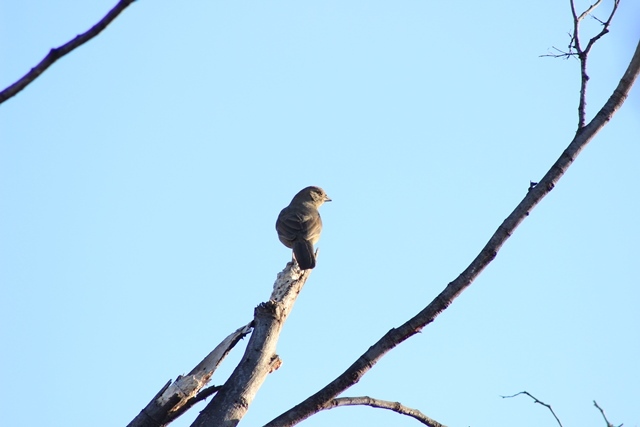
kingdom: Animalia
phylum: Chordata
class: Aves
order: Passeriformes
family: Passerellidae
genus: Melozone
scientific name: Melozone crissalis
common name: California towhee
